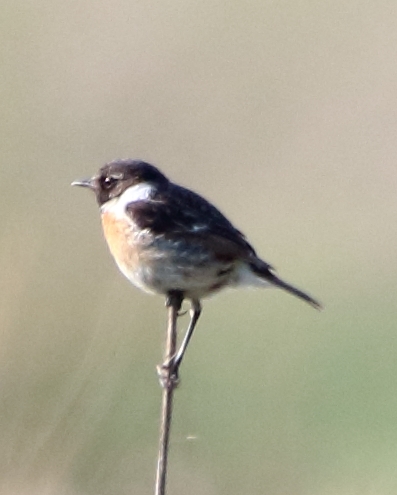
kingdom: Animalia
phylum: Chordata
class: Aves
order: Passeriformes
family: Muscicapidae
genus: Saxicola
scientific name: Saxicola rubicola
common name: European stonechat
